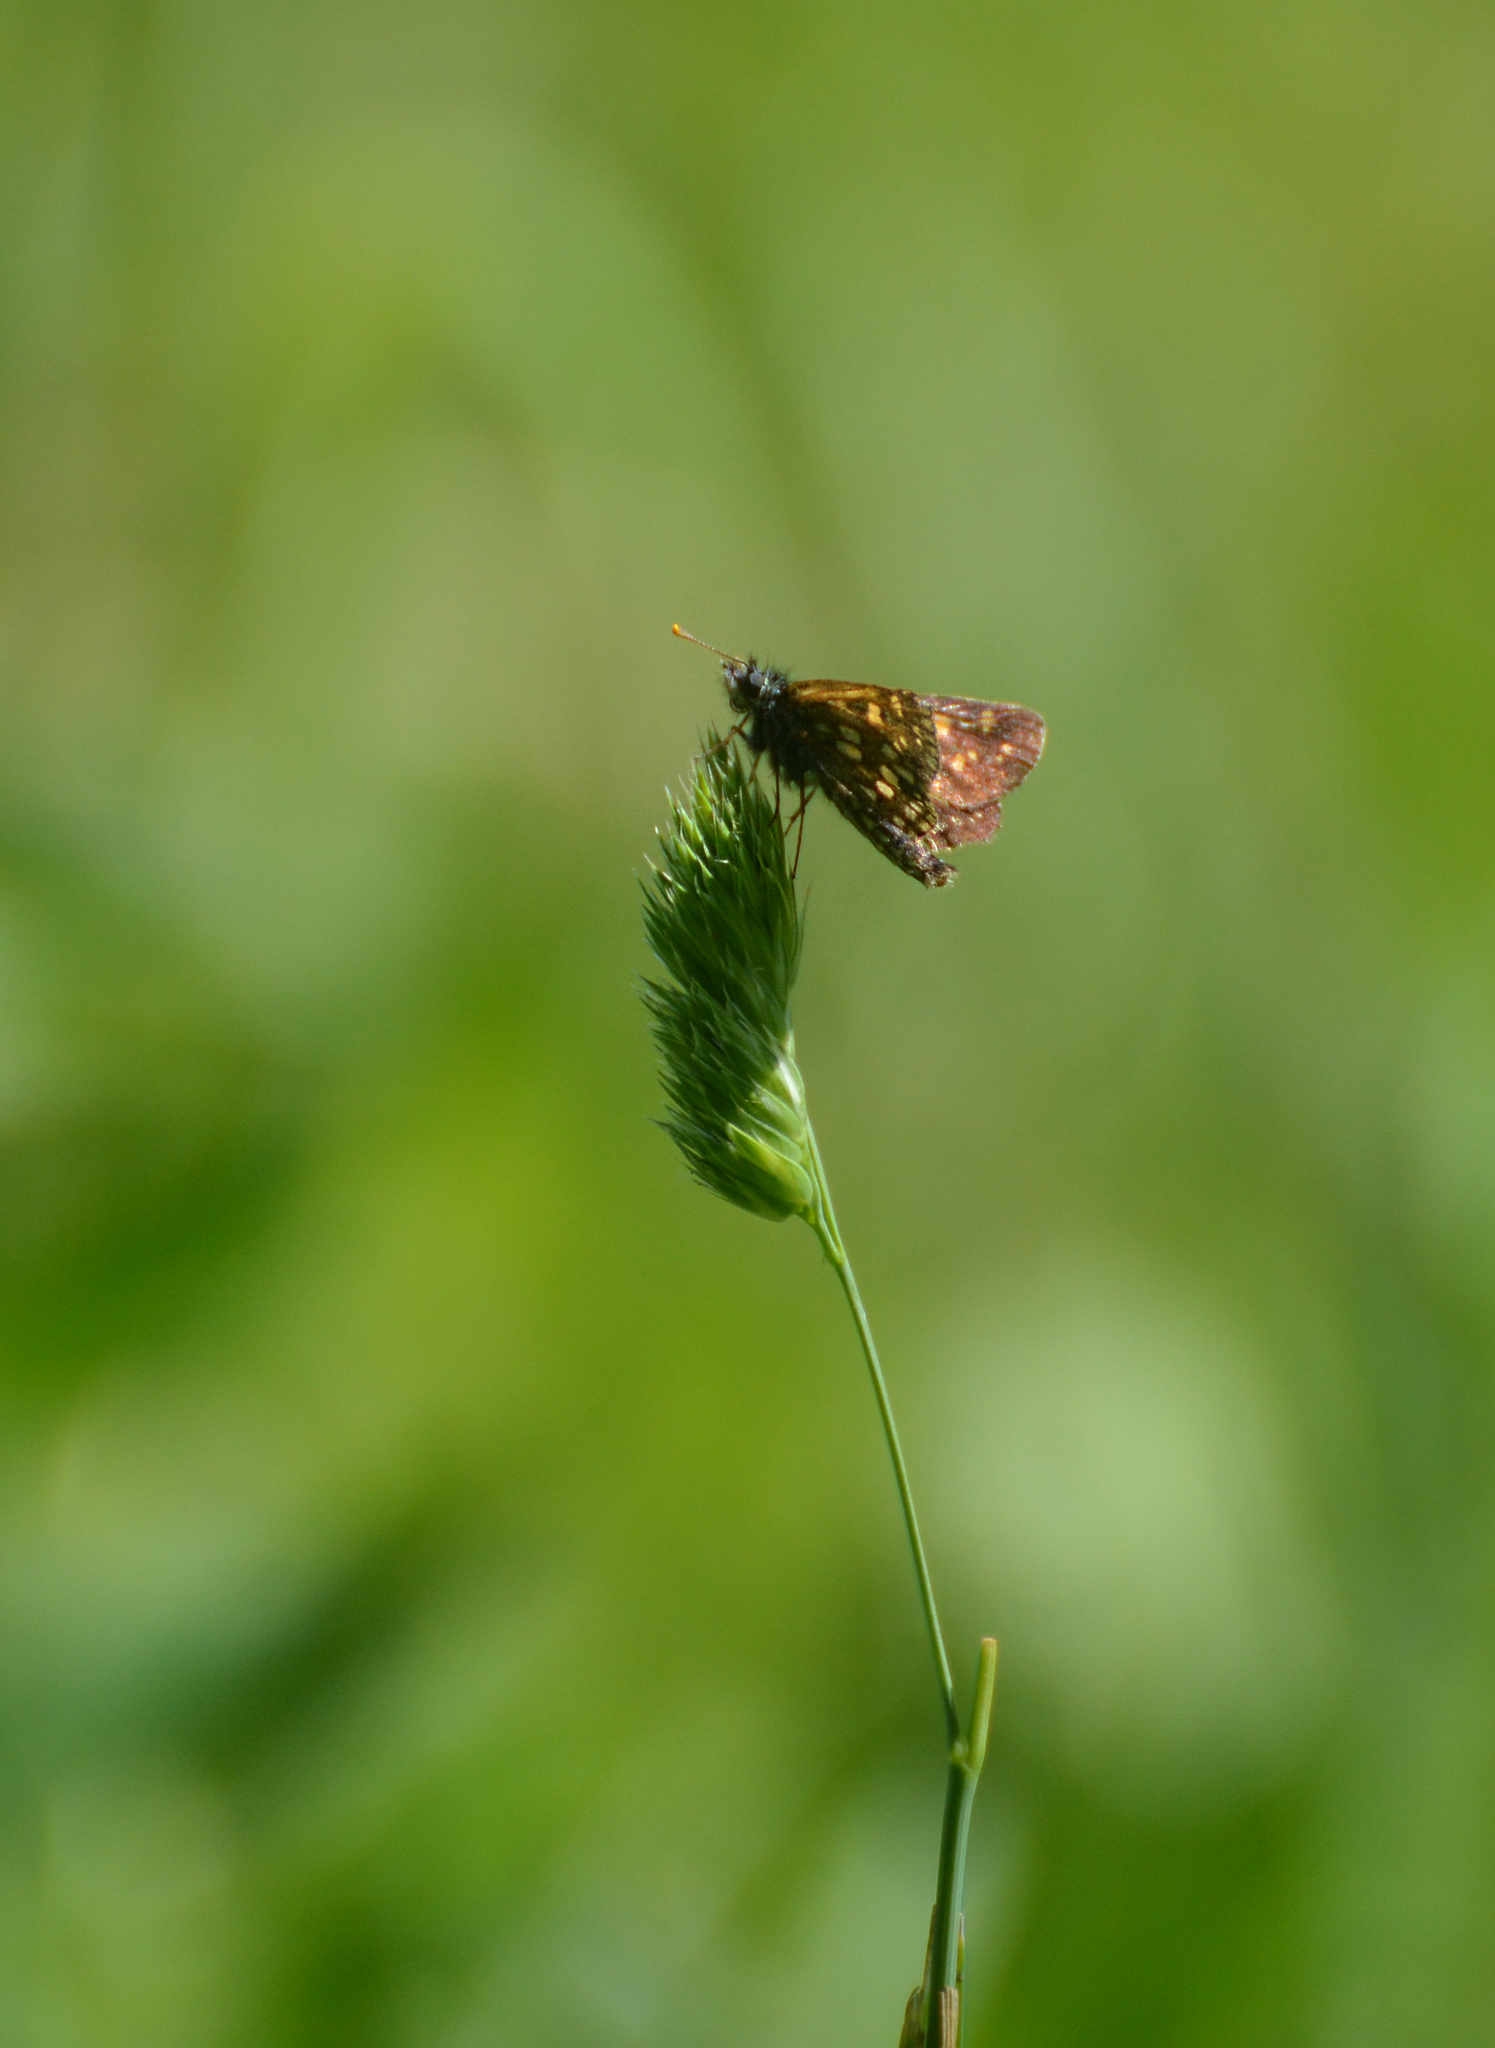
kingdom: Animalia
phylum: Arthropoda
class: Insecta
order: Lepidoptera
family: Hesperiidae
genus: Carterocephalus
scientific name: Carterocephalus palaemon
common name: Chequered skipper
